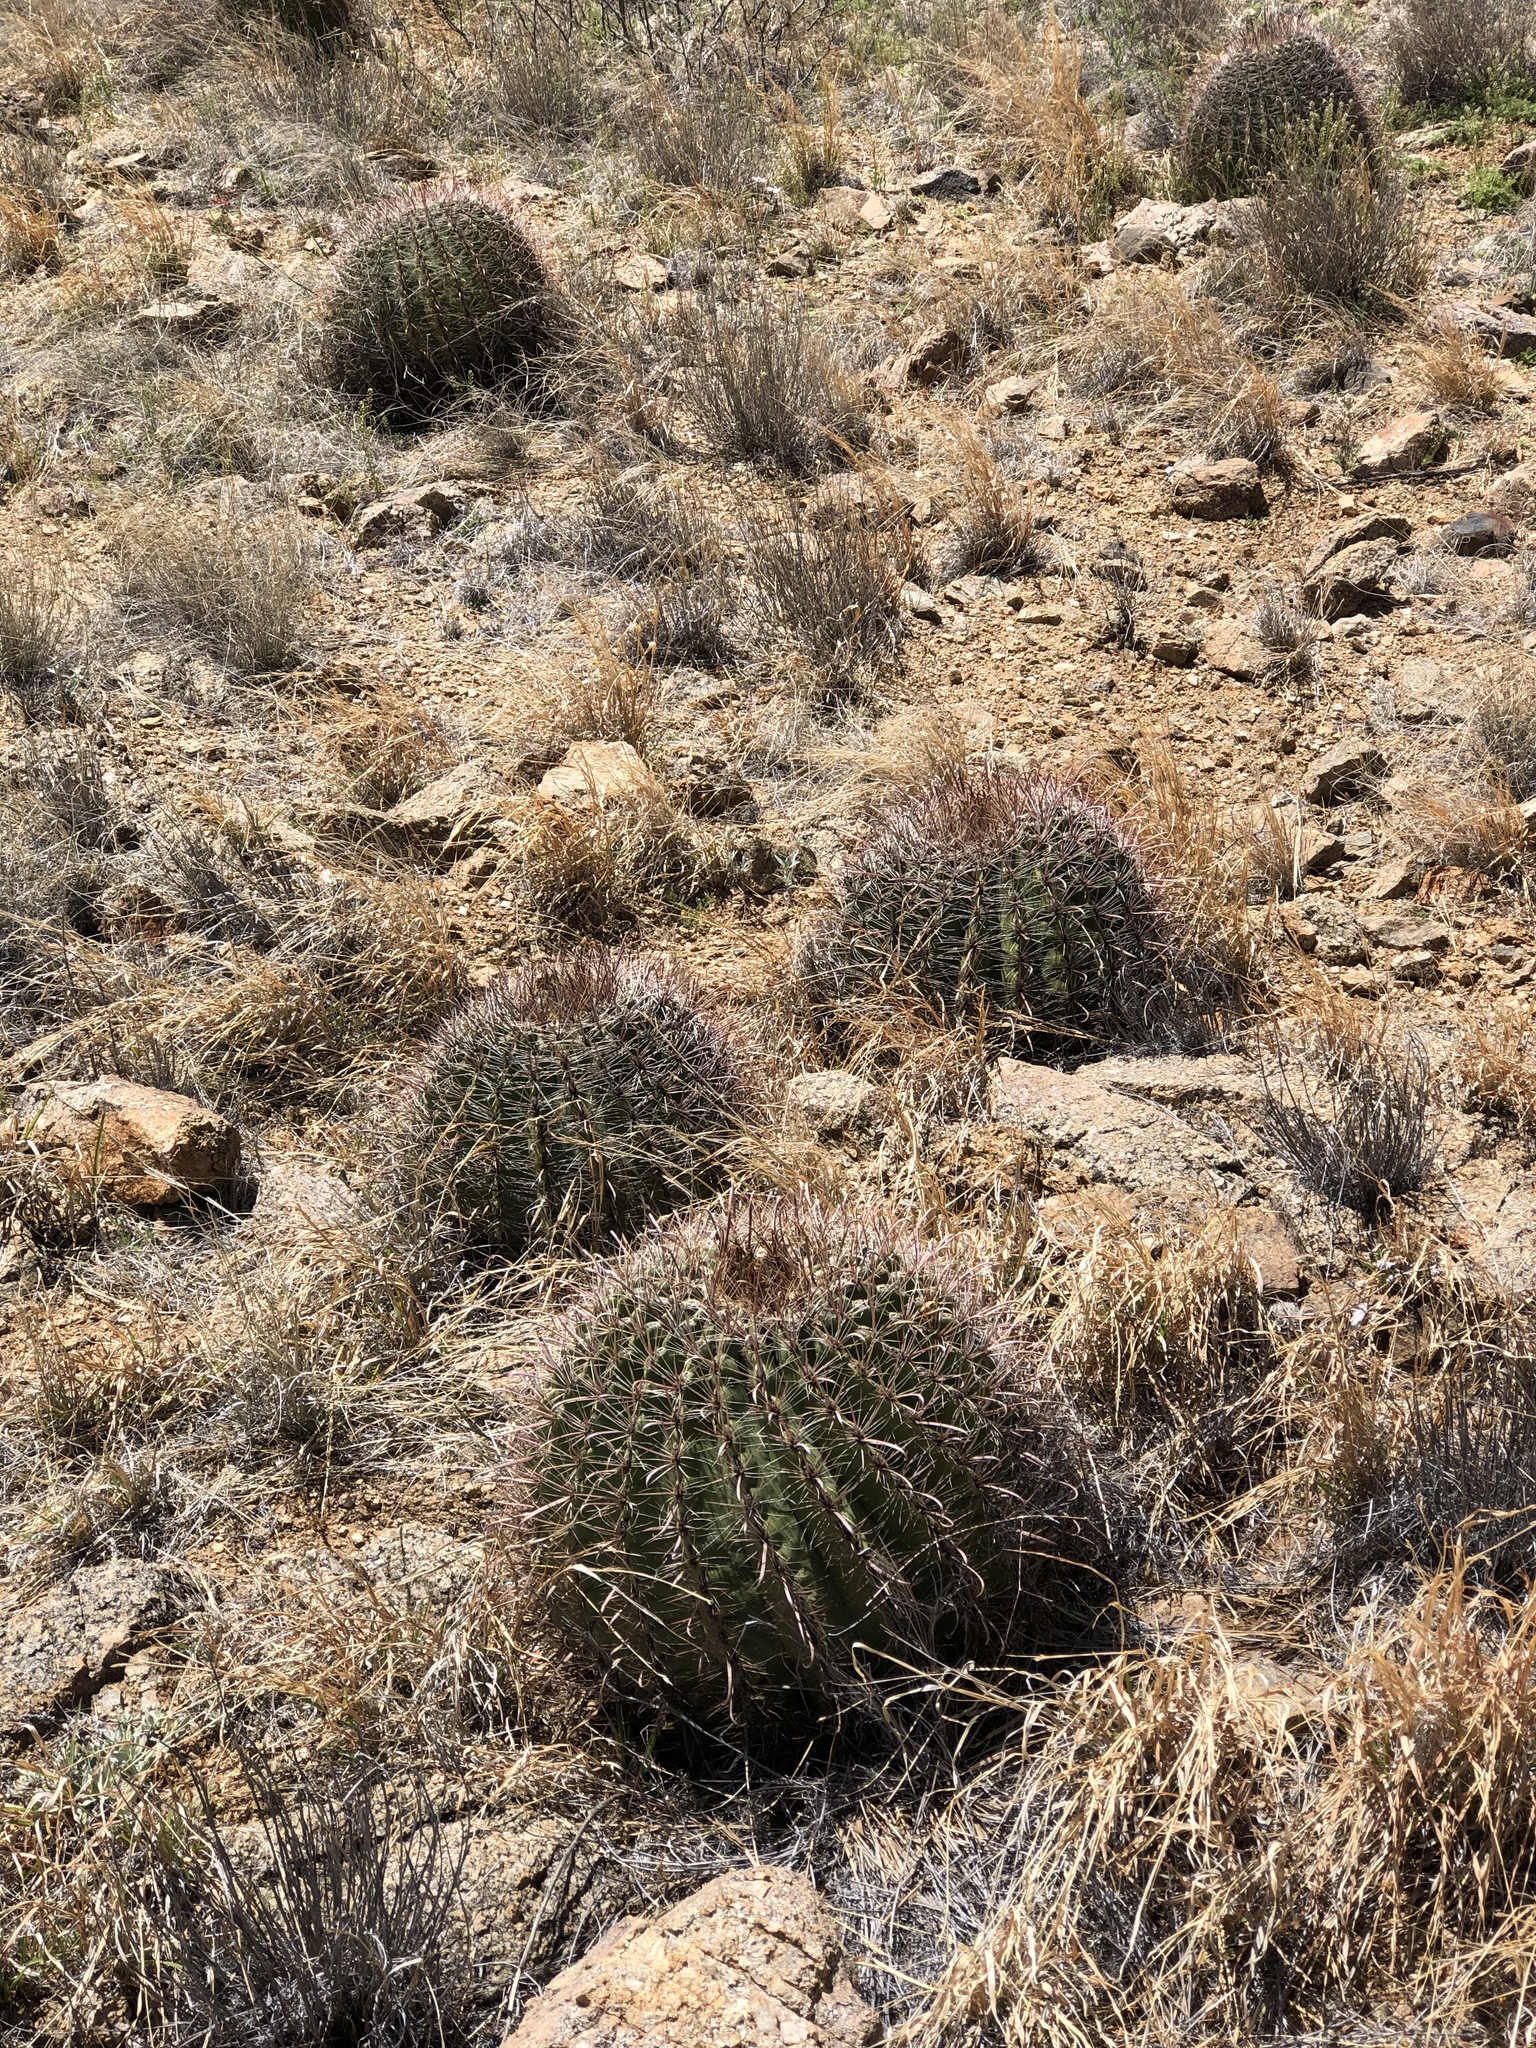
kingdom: Plantae
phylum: Tracheophyta
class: Magnoliopsida
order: Caryophyllales
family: Cactaceae
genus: Ferocactus
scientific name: Ferocactus wislizeni
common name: Candy barrel cactus
